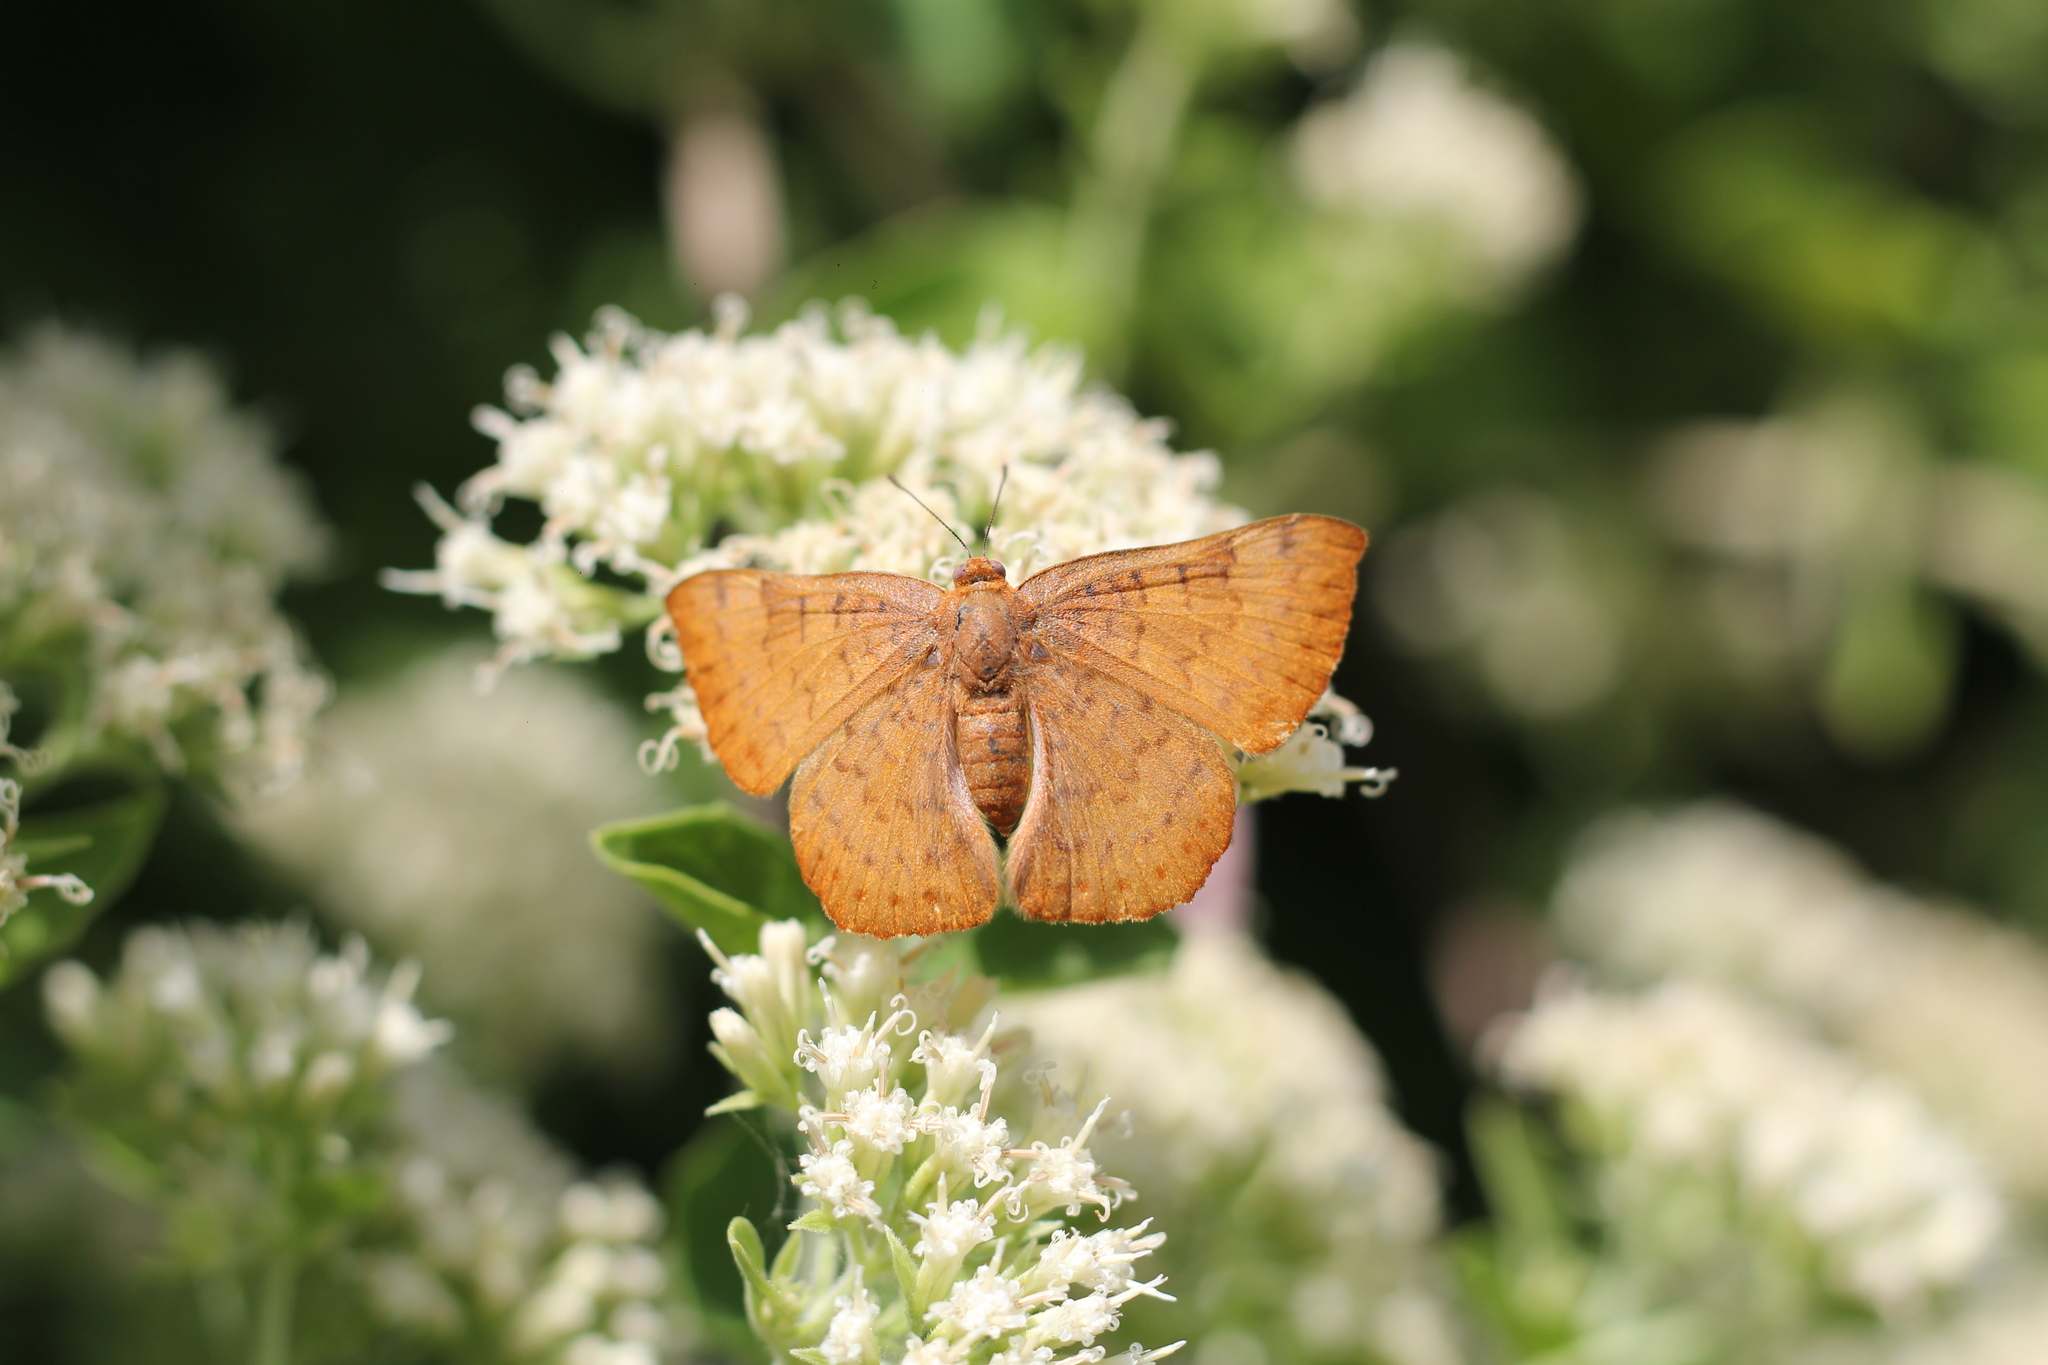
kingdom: Animalia
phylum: Arthropoda
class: Insecta
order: Lepidoptera
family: Lycaenidae
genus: Emesis
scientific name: Emesis russula
